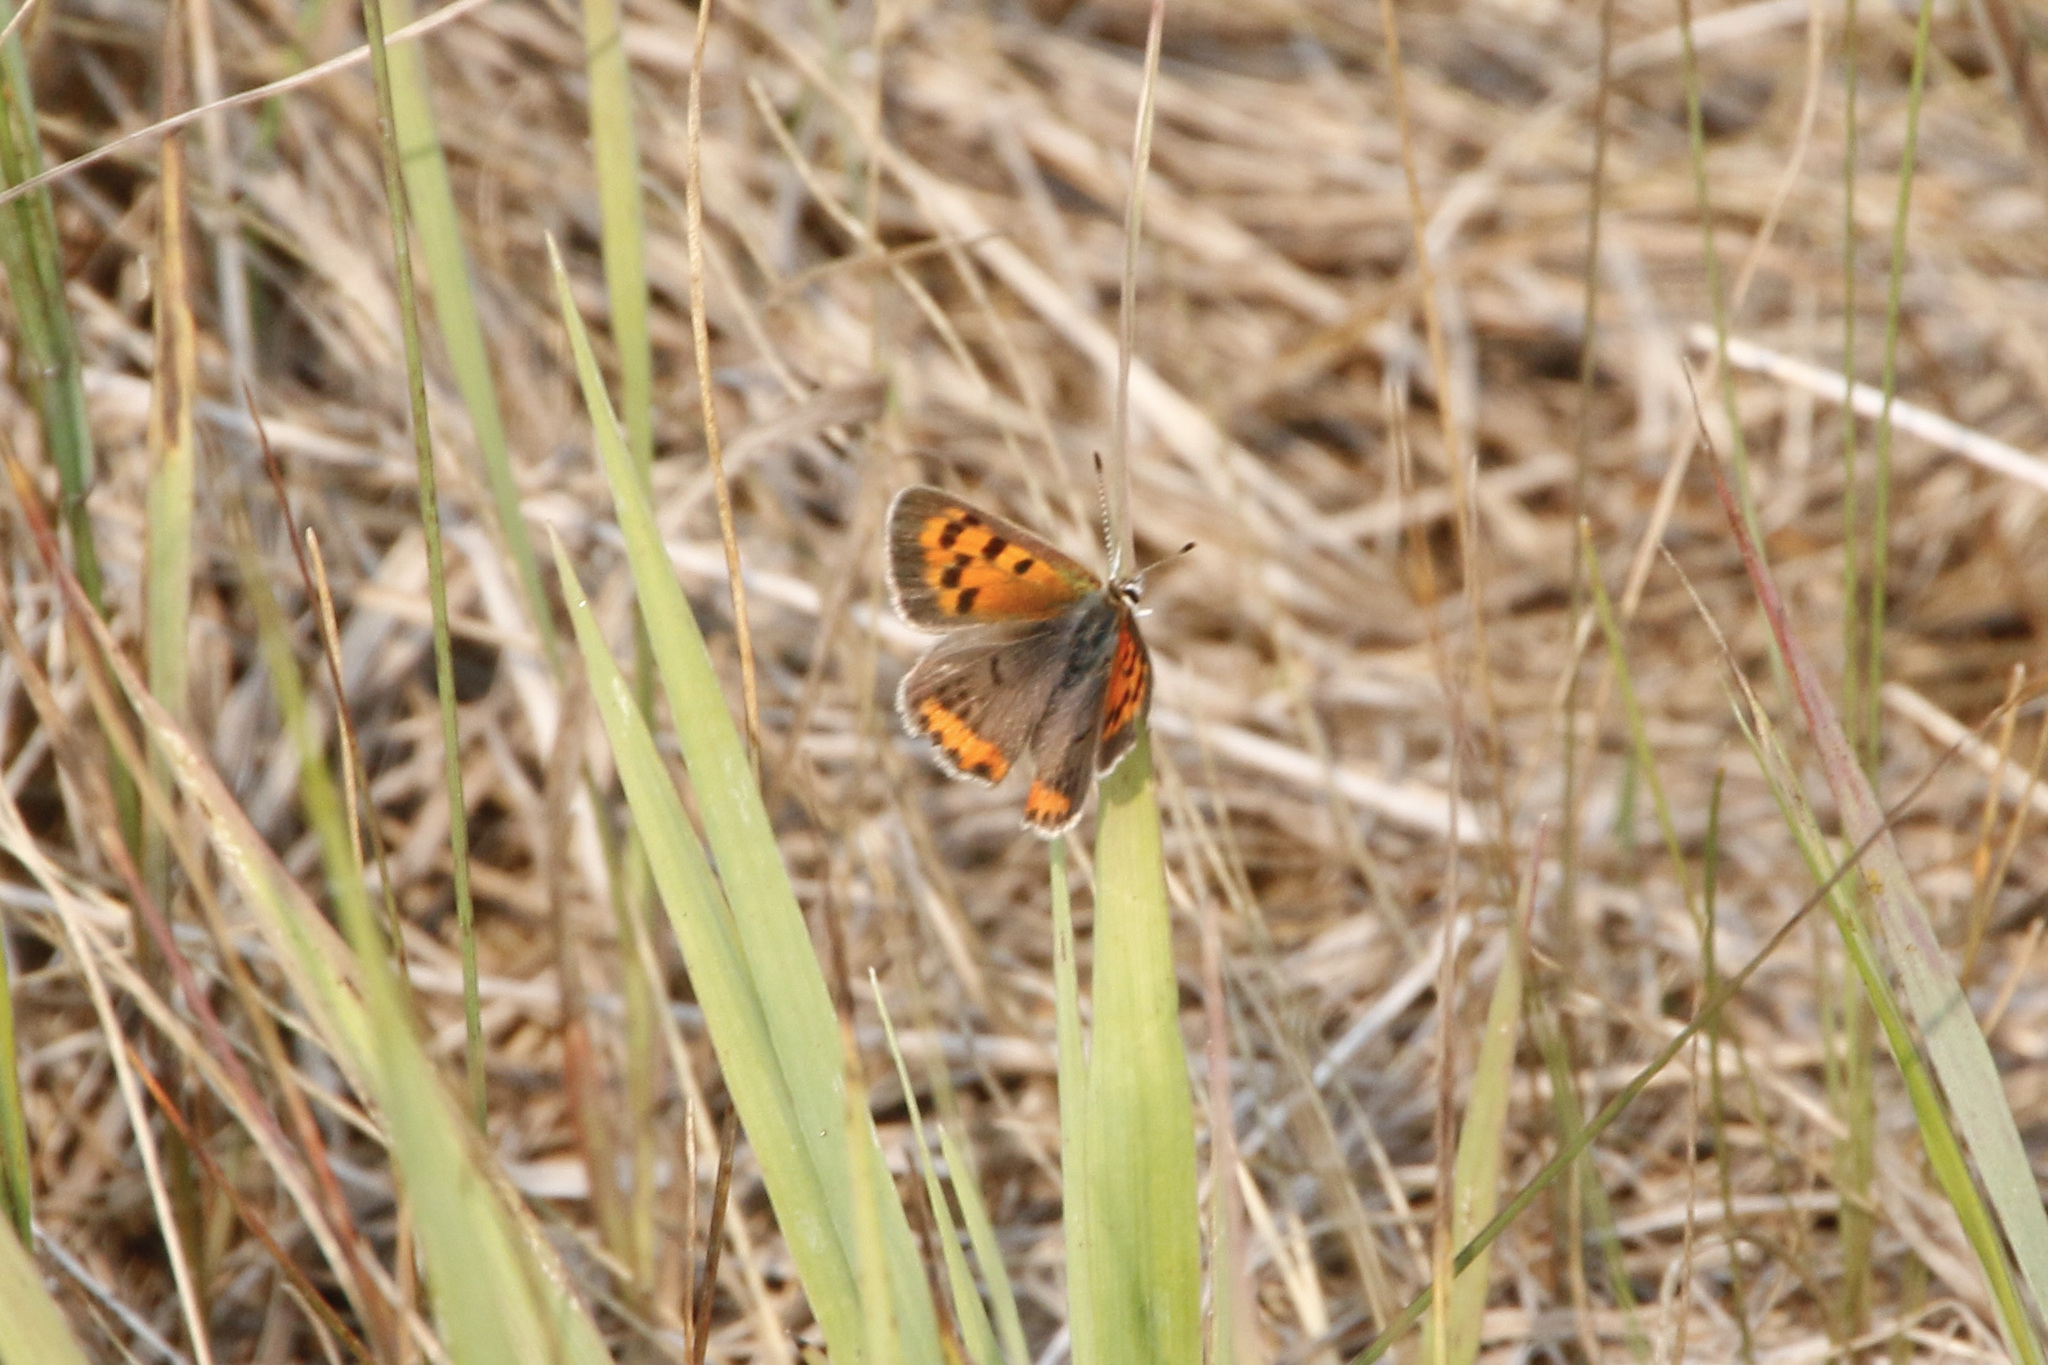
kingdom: Animalia
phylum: Arthropoda
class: Insecta
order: Lepidoptera
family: Lycaenidae
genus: Lycaena
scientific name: Lycaena hypophlaeas
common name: American copper
